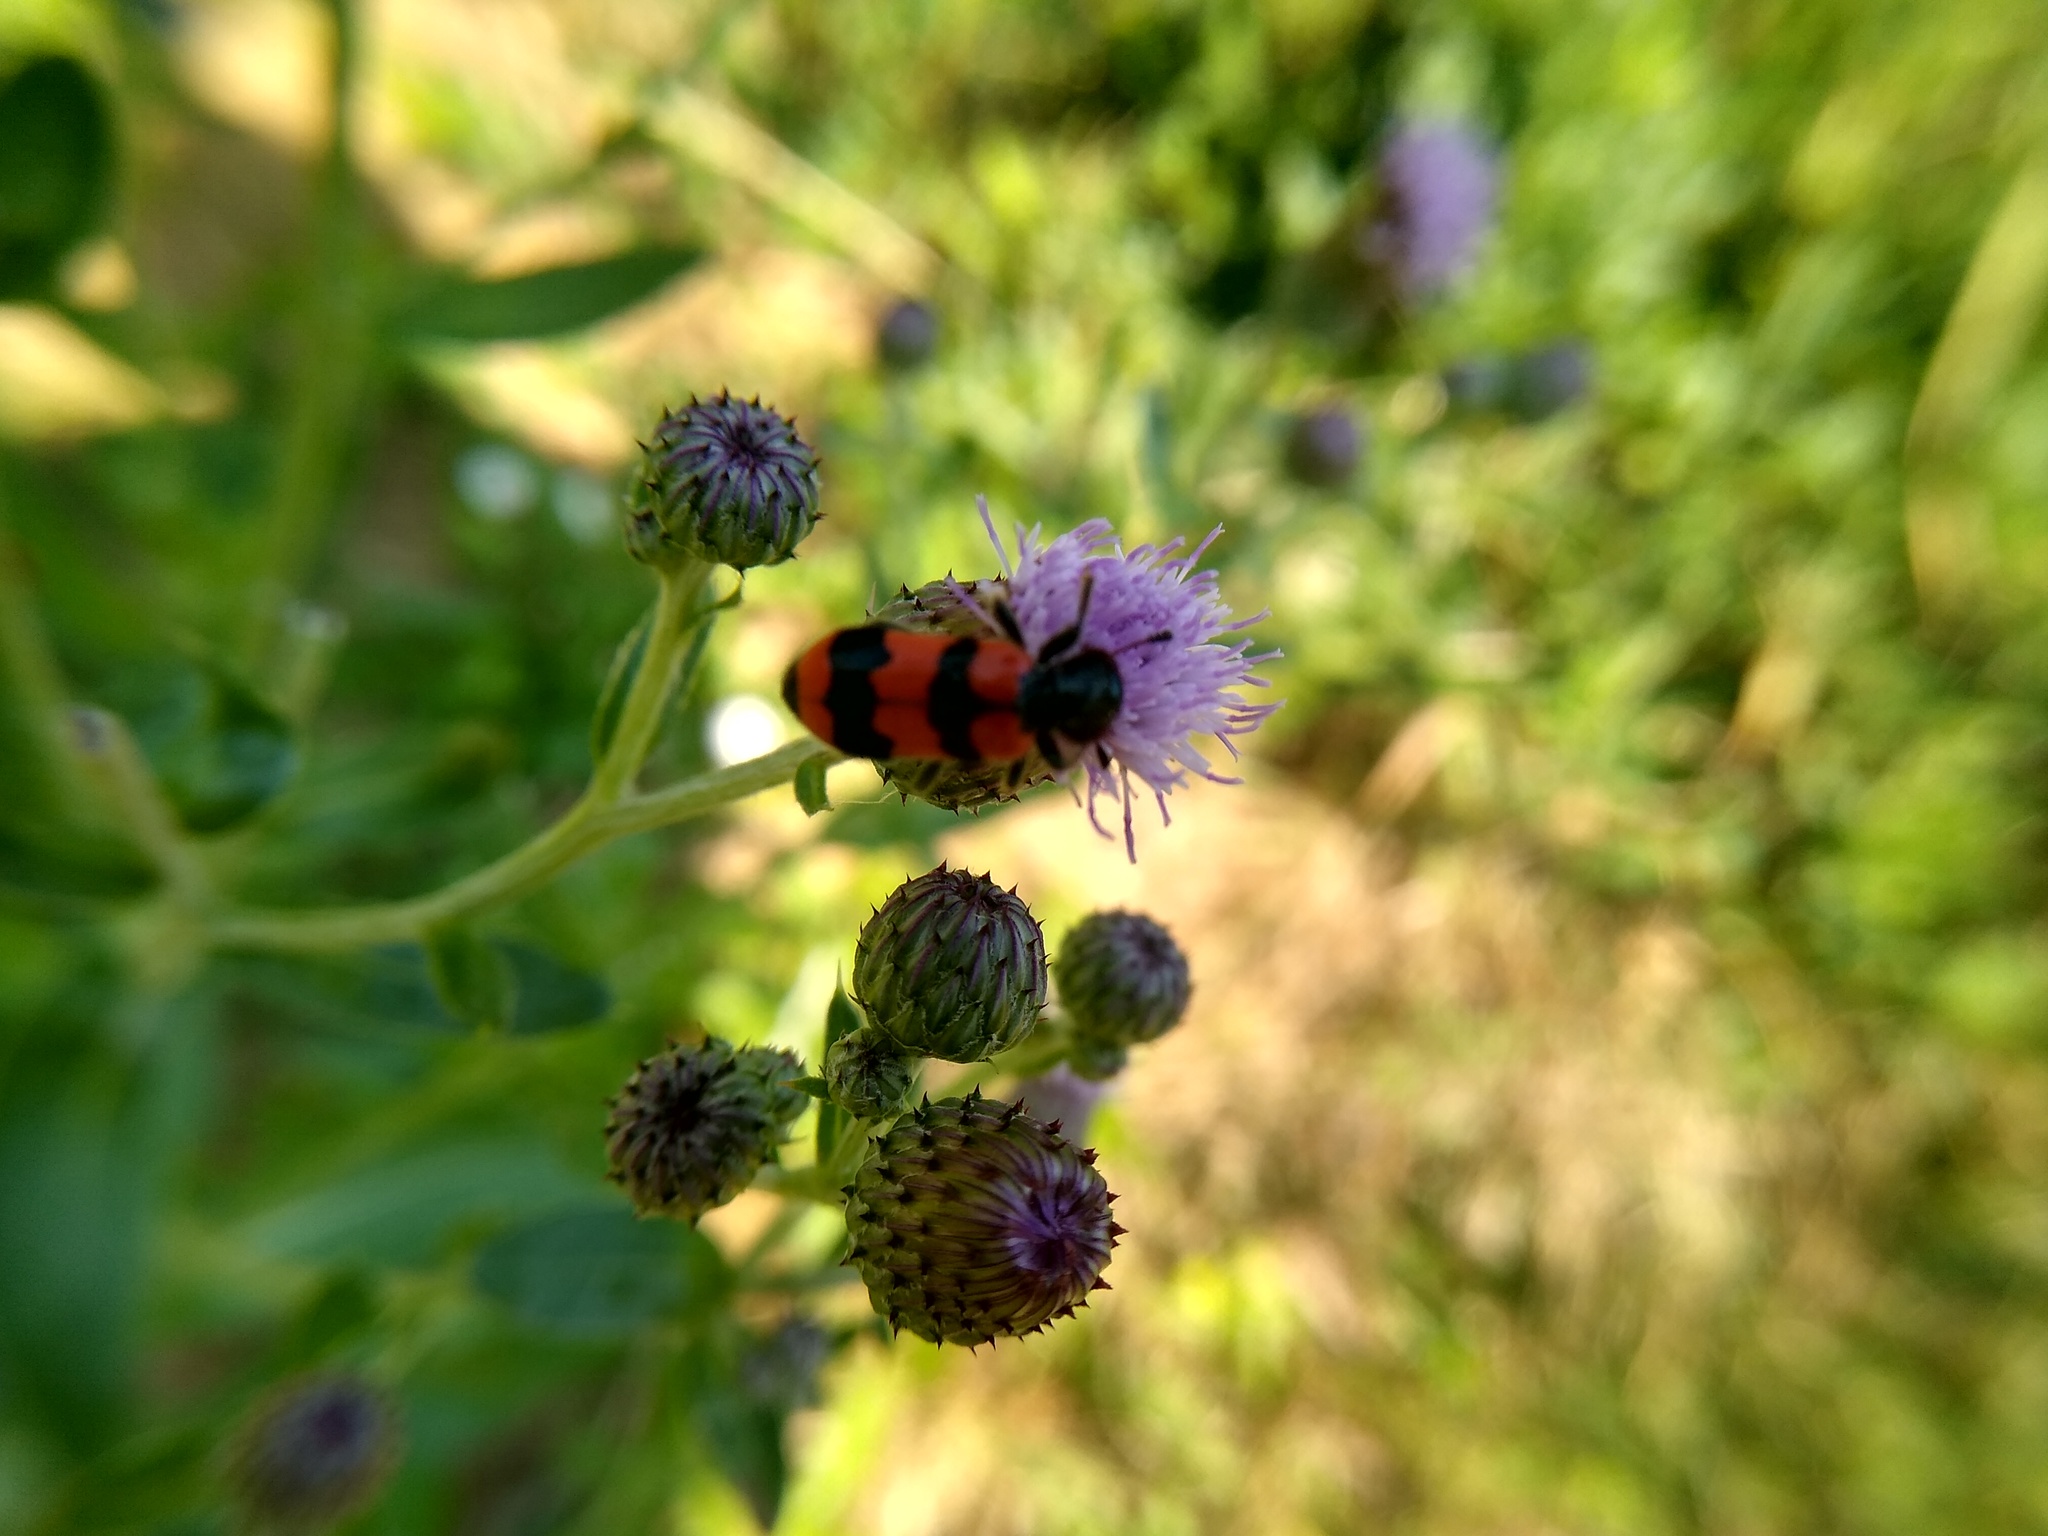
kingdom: Animalia
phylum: Arthropoda
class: Insecta
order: Coleoptera
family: Cleridae
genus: Trichodes
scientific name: Trichodes apiarius
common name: Bee-eating beetle
